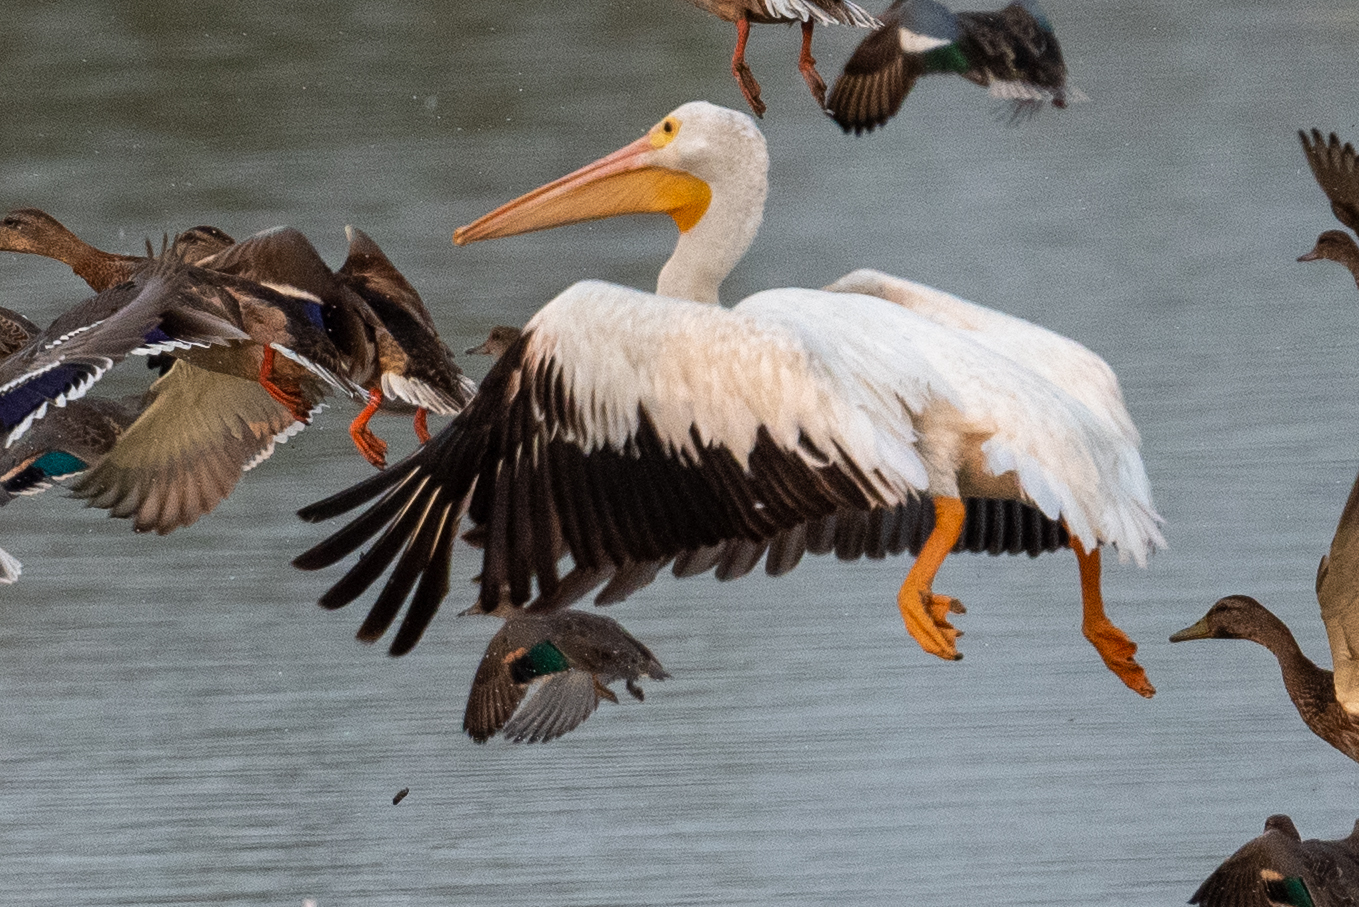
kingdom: Animalia
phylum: Chordata
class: Aves
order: Pelecaniformes
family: Pelecanidae
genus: Pelecanus
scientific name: Pelecanus erythrorhynchos
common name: American white pelican
